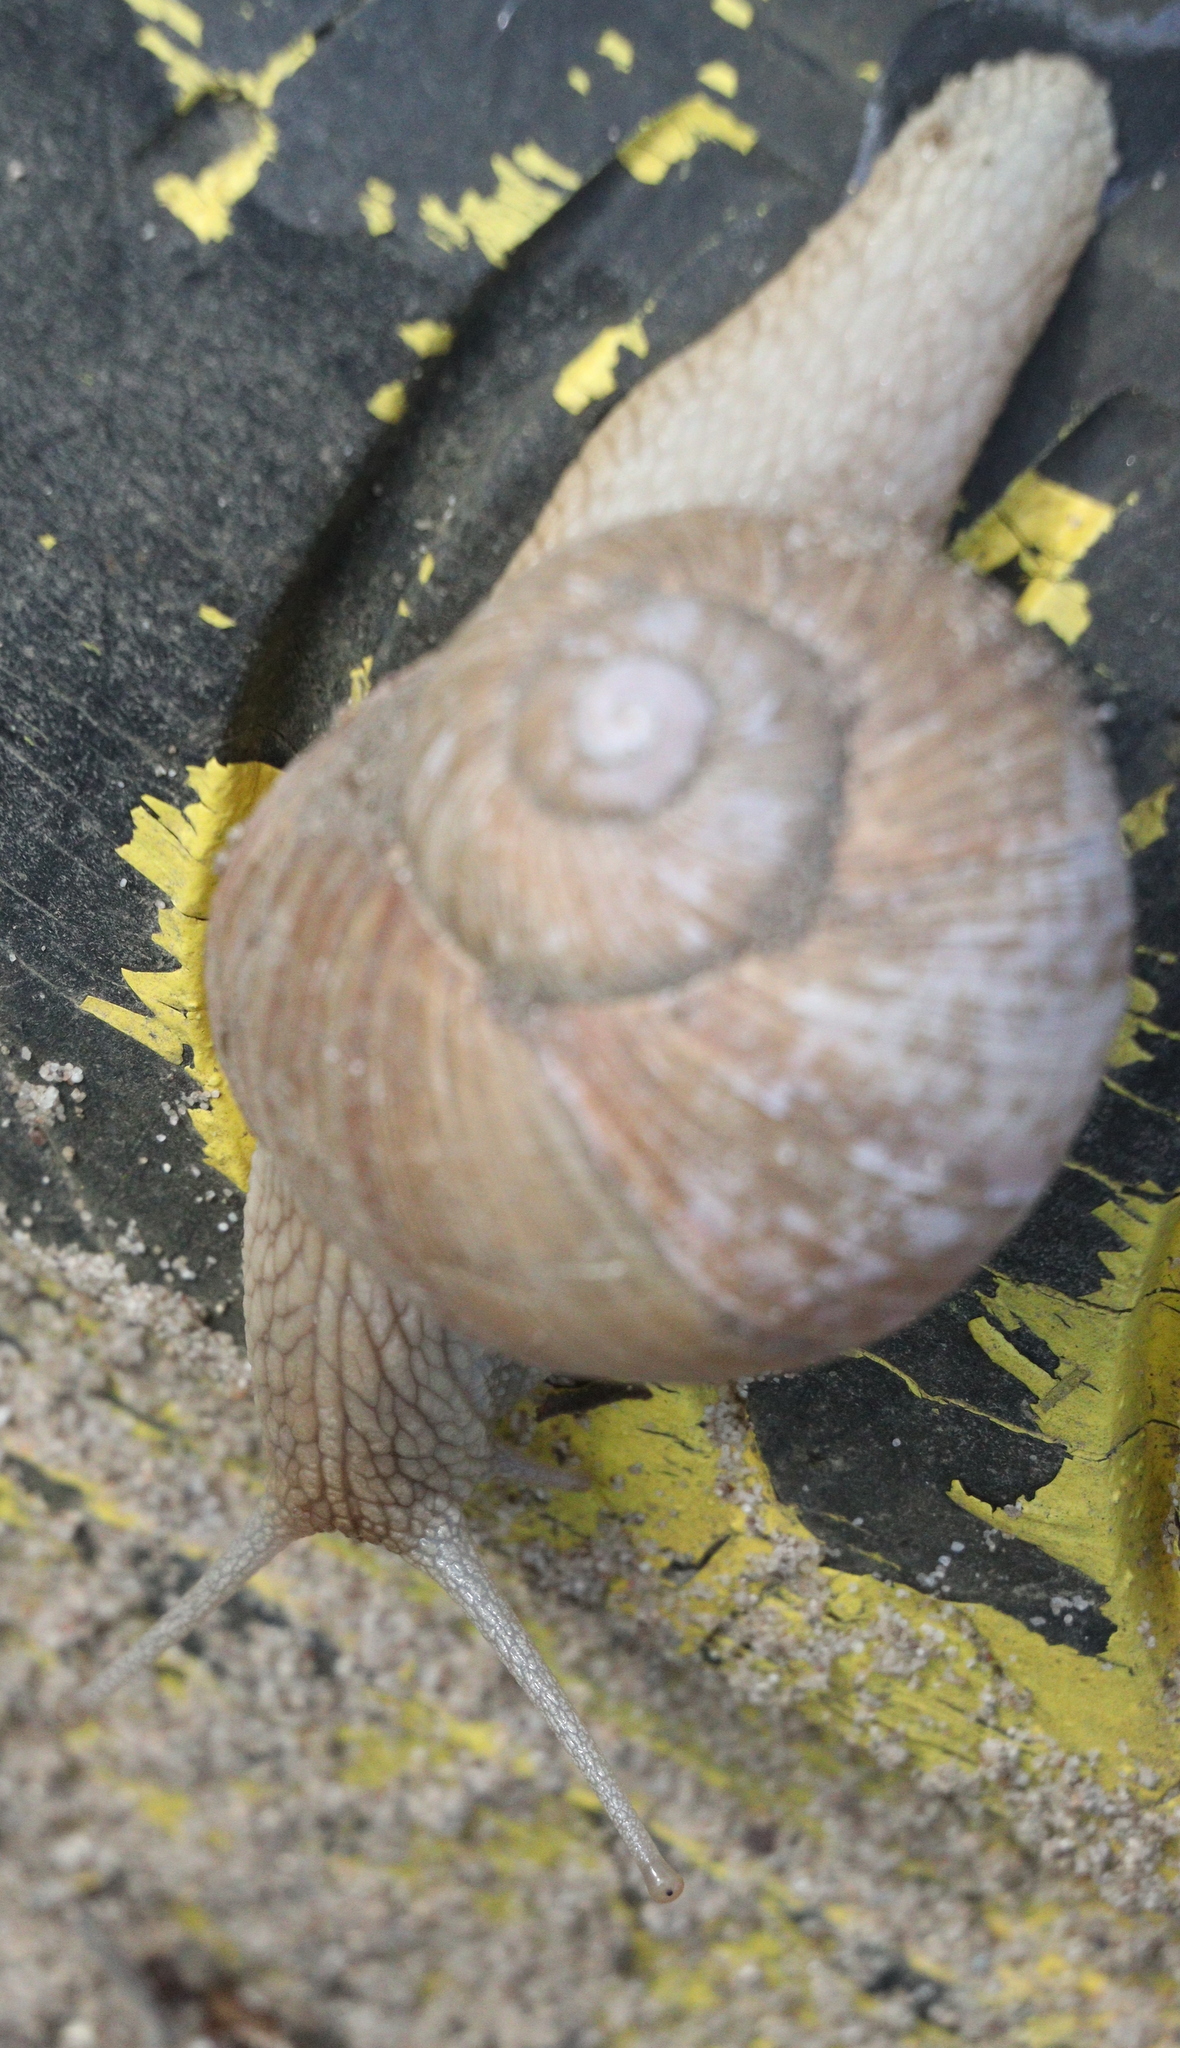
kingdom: Animalia
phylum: Mollusca
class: Gastropoda
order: Stylommatophora
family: Helicidae
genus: Helix
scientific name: Helix pomatia
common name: Roman snail
